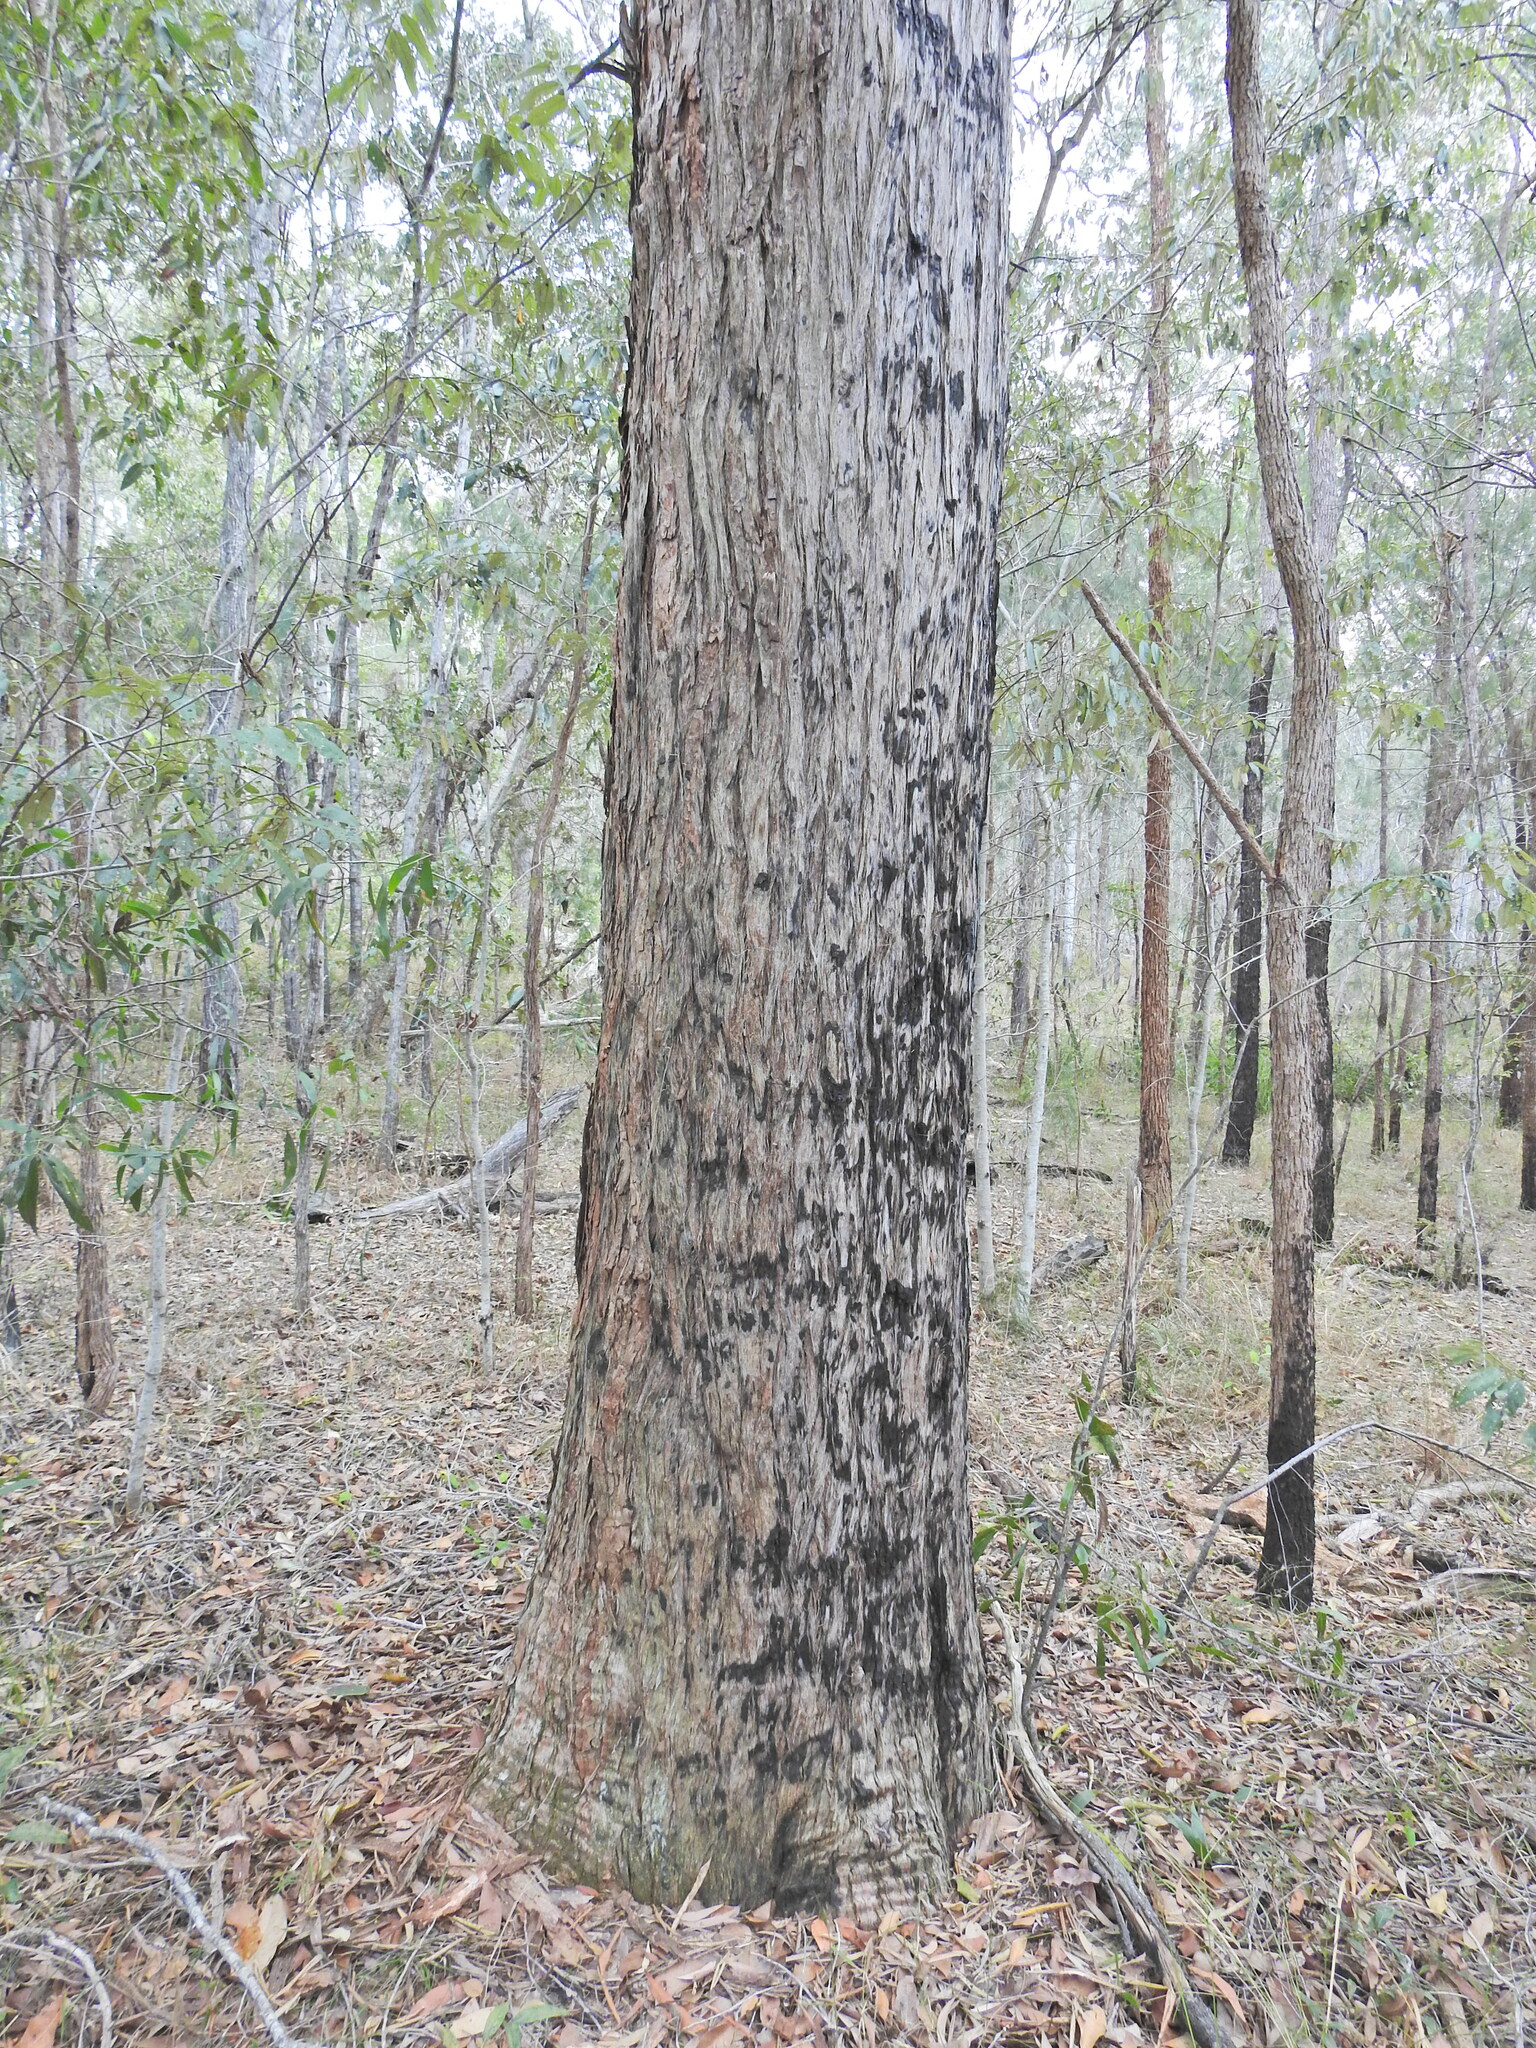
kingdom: Plantae
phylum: Tracheophyta
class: Magnoliopsida
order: Myrtales
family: Myrtaceae
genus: Lophostemon
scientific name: Lophostemon suaveolens
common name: Paperbark-mahogany
